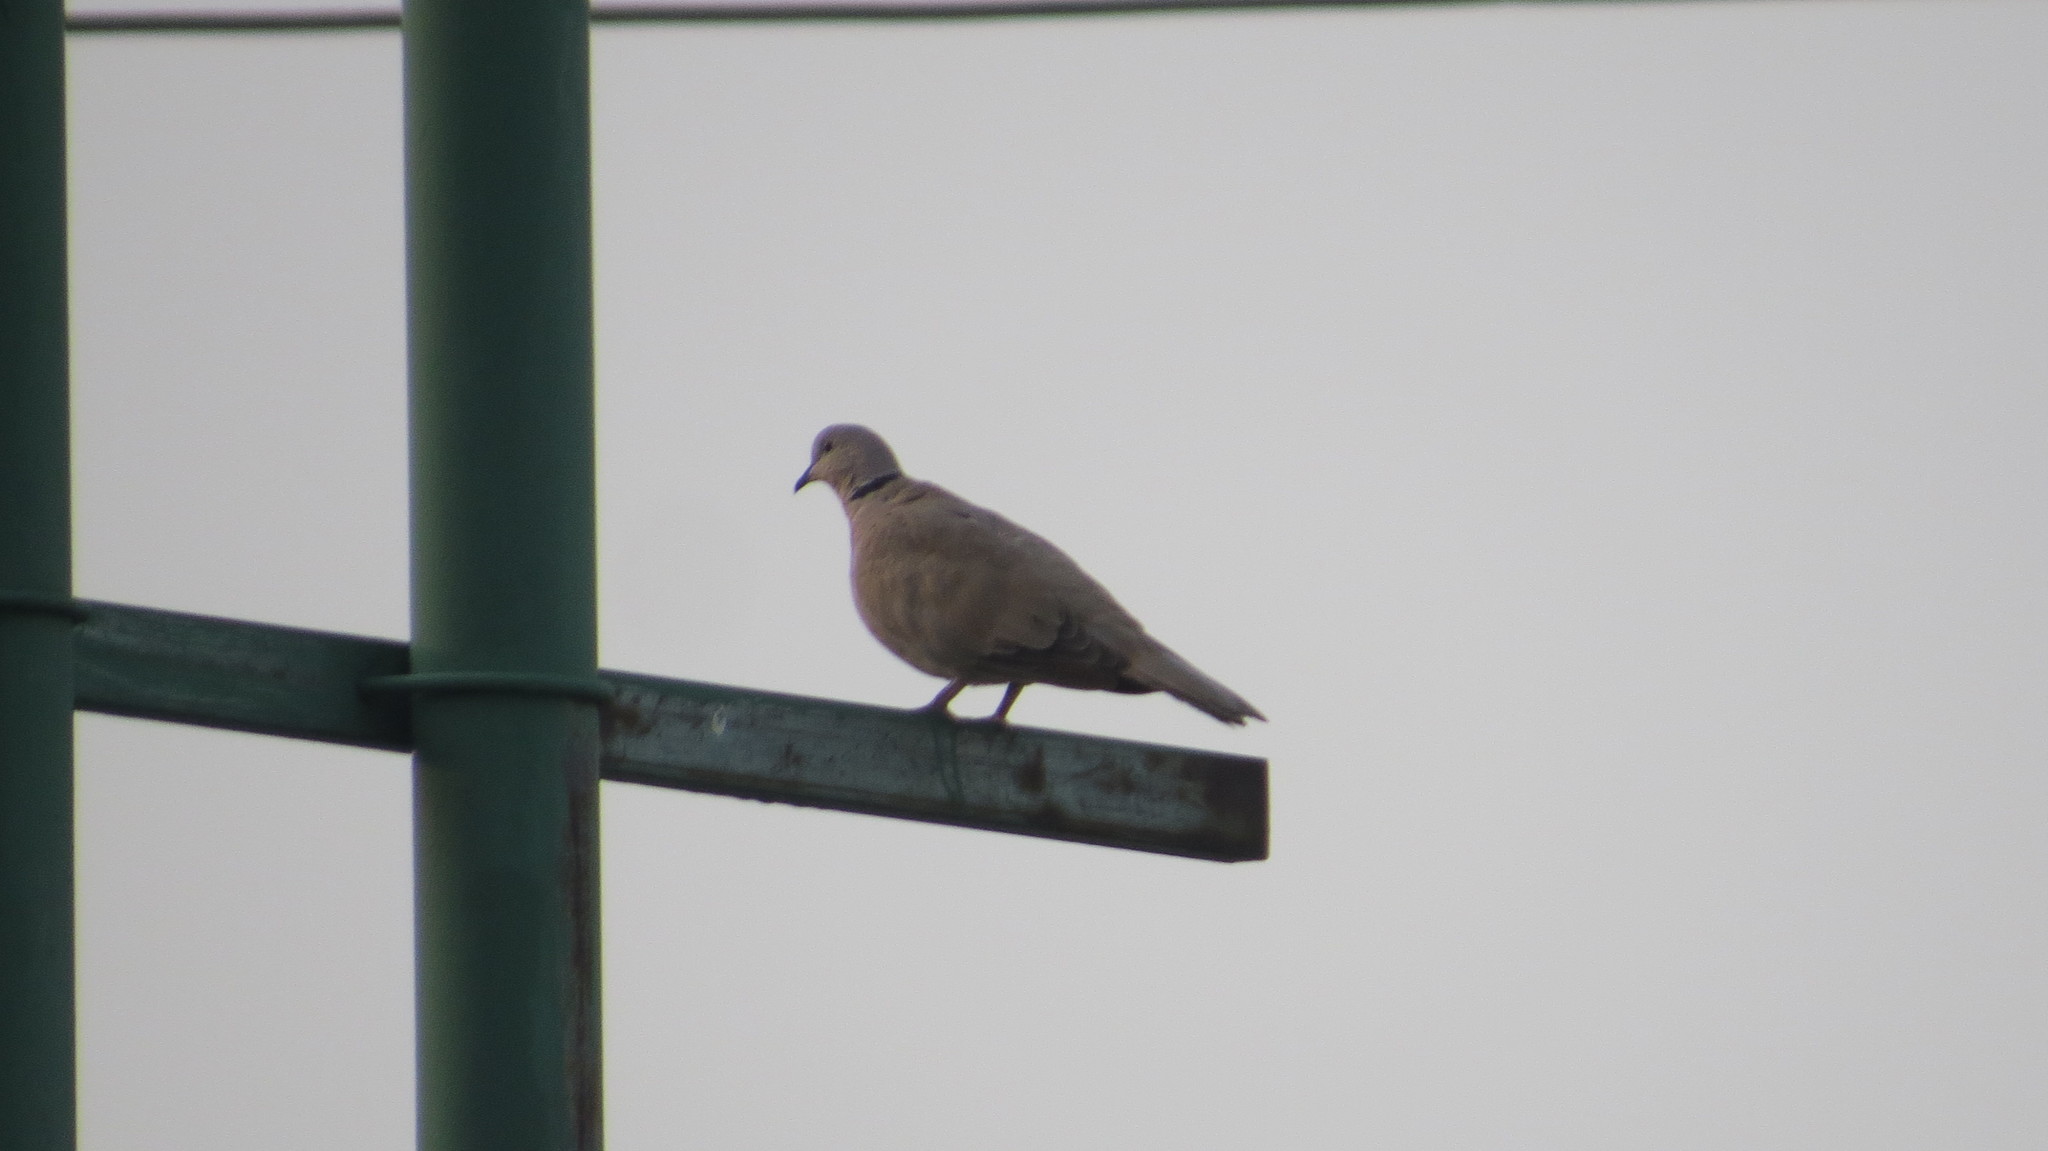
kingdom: Animalia
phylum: Chordata
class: Aves
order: Columbiformes
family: Columbidae
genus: Streptopelia
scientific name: Streptopelia decaocto
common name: Eurasian collared dove
